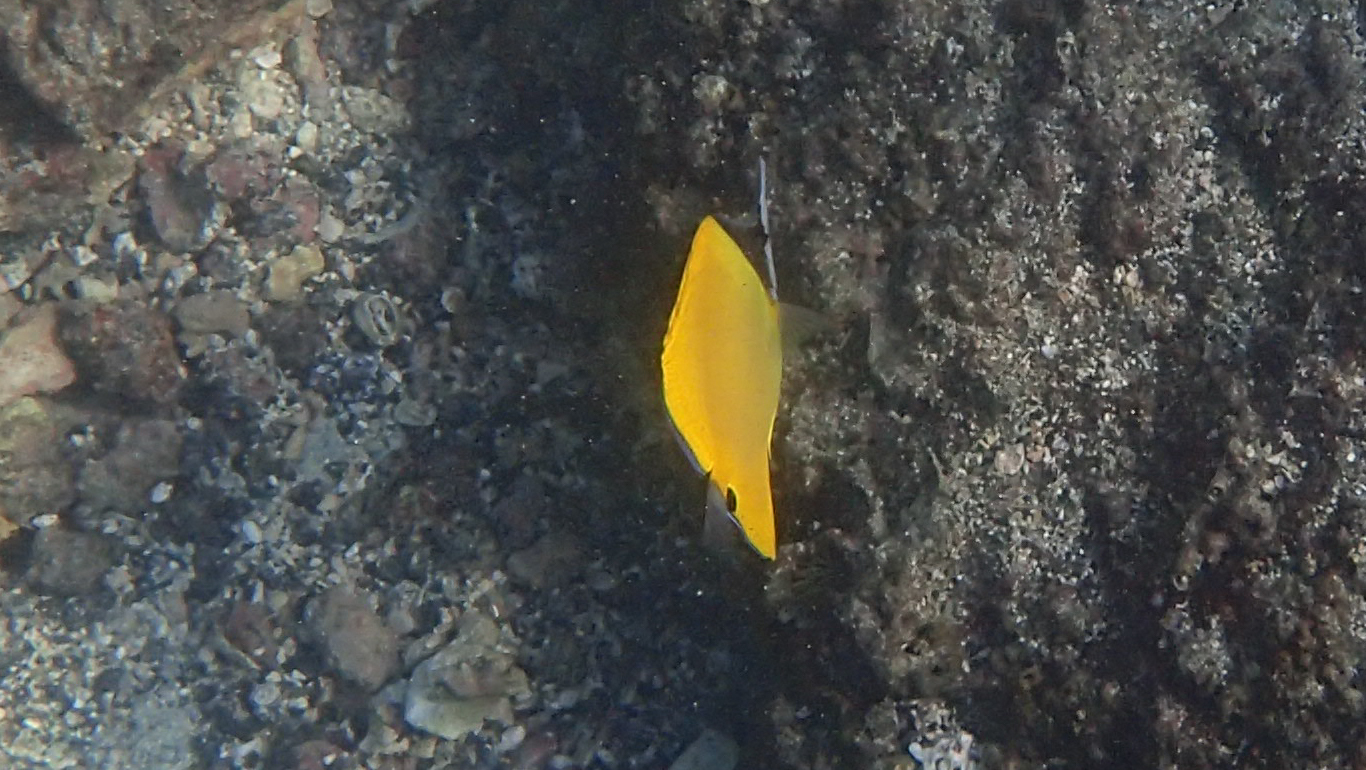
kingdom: Animalia
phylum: Chordata
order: Perciformes
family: Chaetodontidae
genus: Forcipiger
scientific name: Forcipiger flavissimus
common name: Forcepsfish
